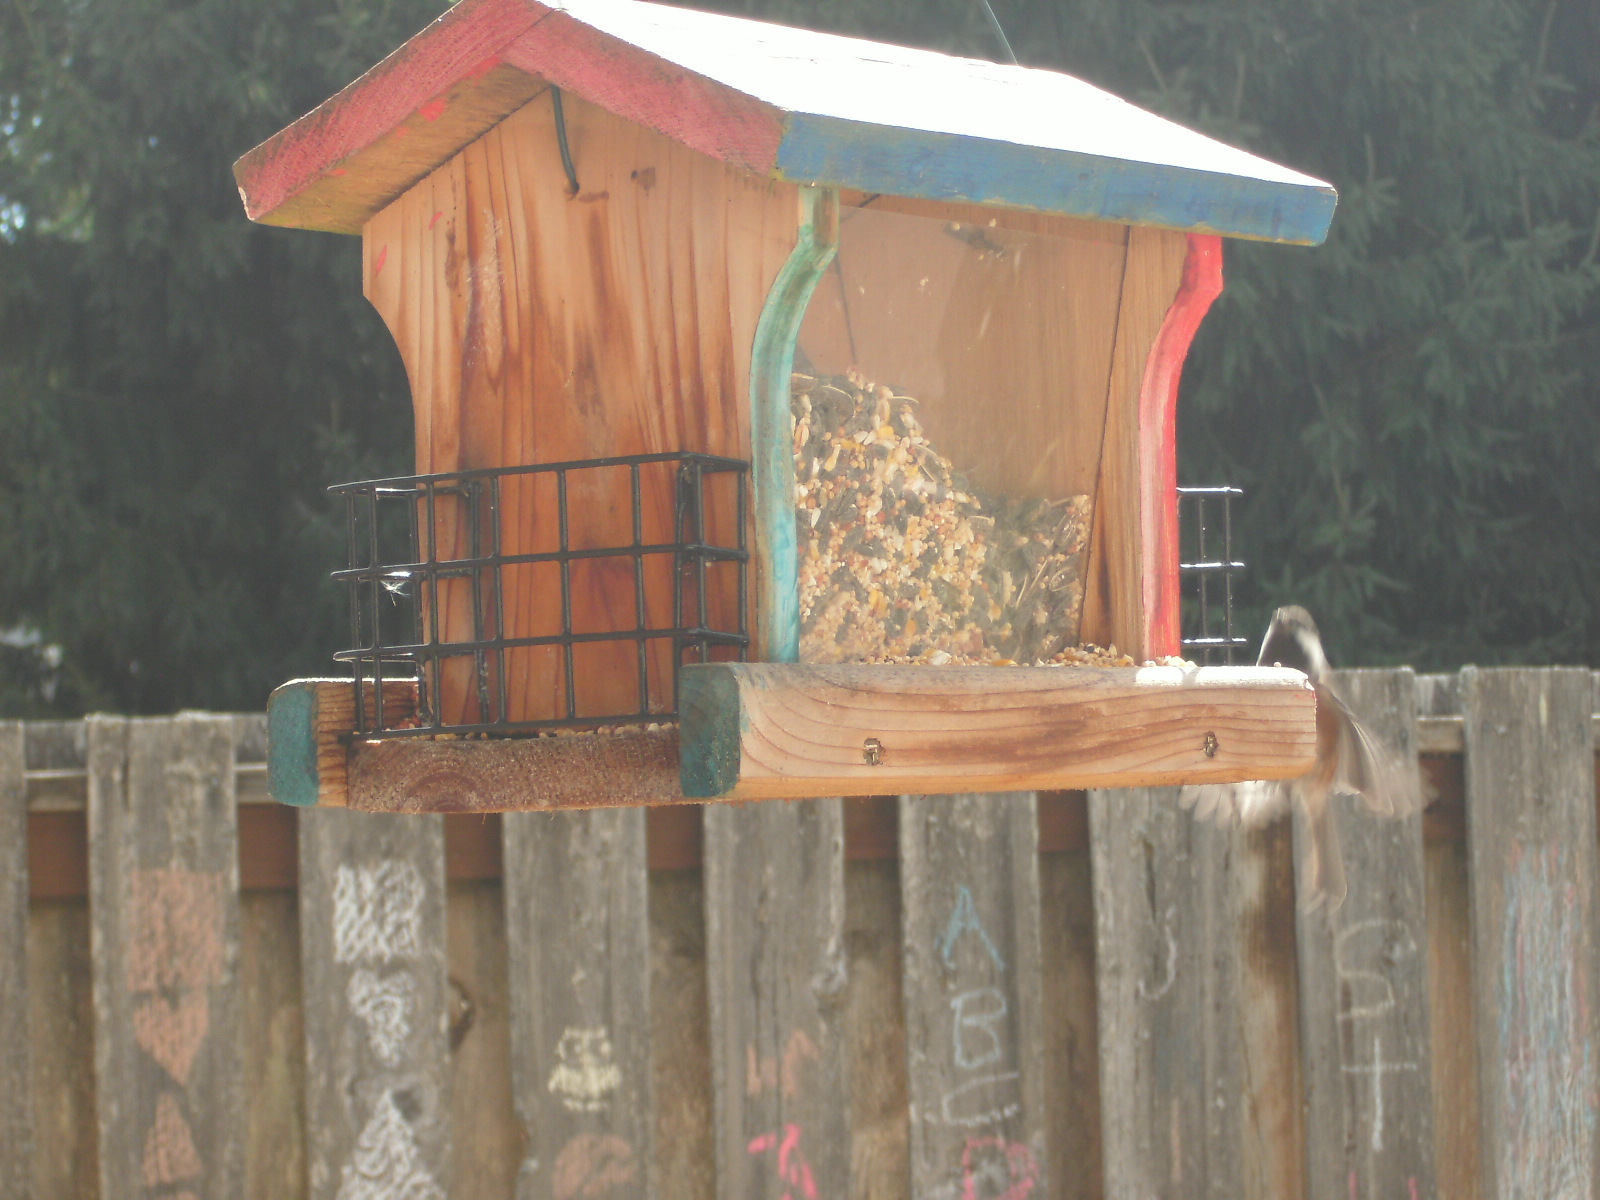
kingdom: Animalia
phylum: Chordata
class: Aves
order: Passeriformes
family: Paridae
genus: Poecile
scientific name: Poecile rufescens
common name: Chestnut-backed chickadee
